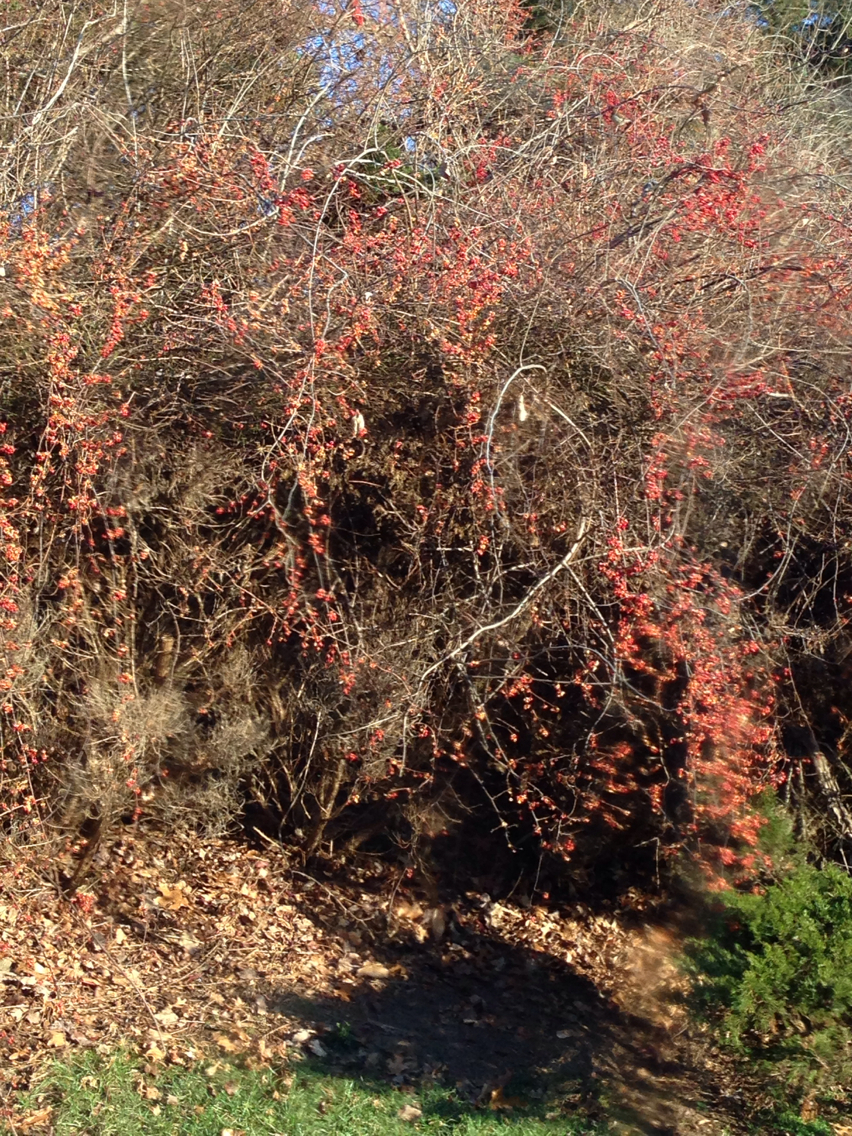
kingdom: Plantae
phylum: Tracheophyta
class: Magnoliopsida
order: Celastrales
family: Celastraceae
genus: Celastrus
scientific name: Celastrus orbiculatus
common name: Oriental bittersweet
